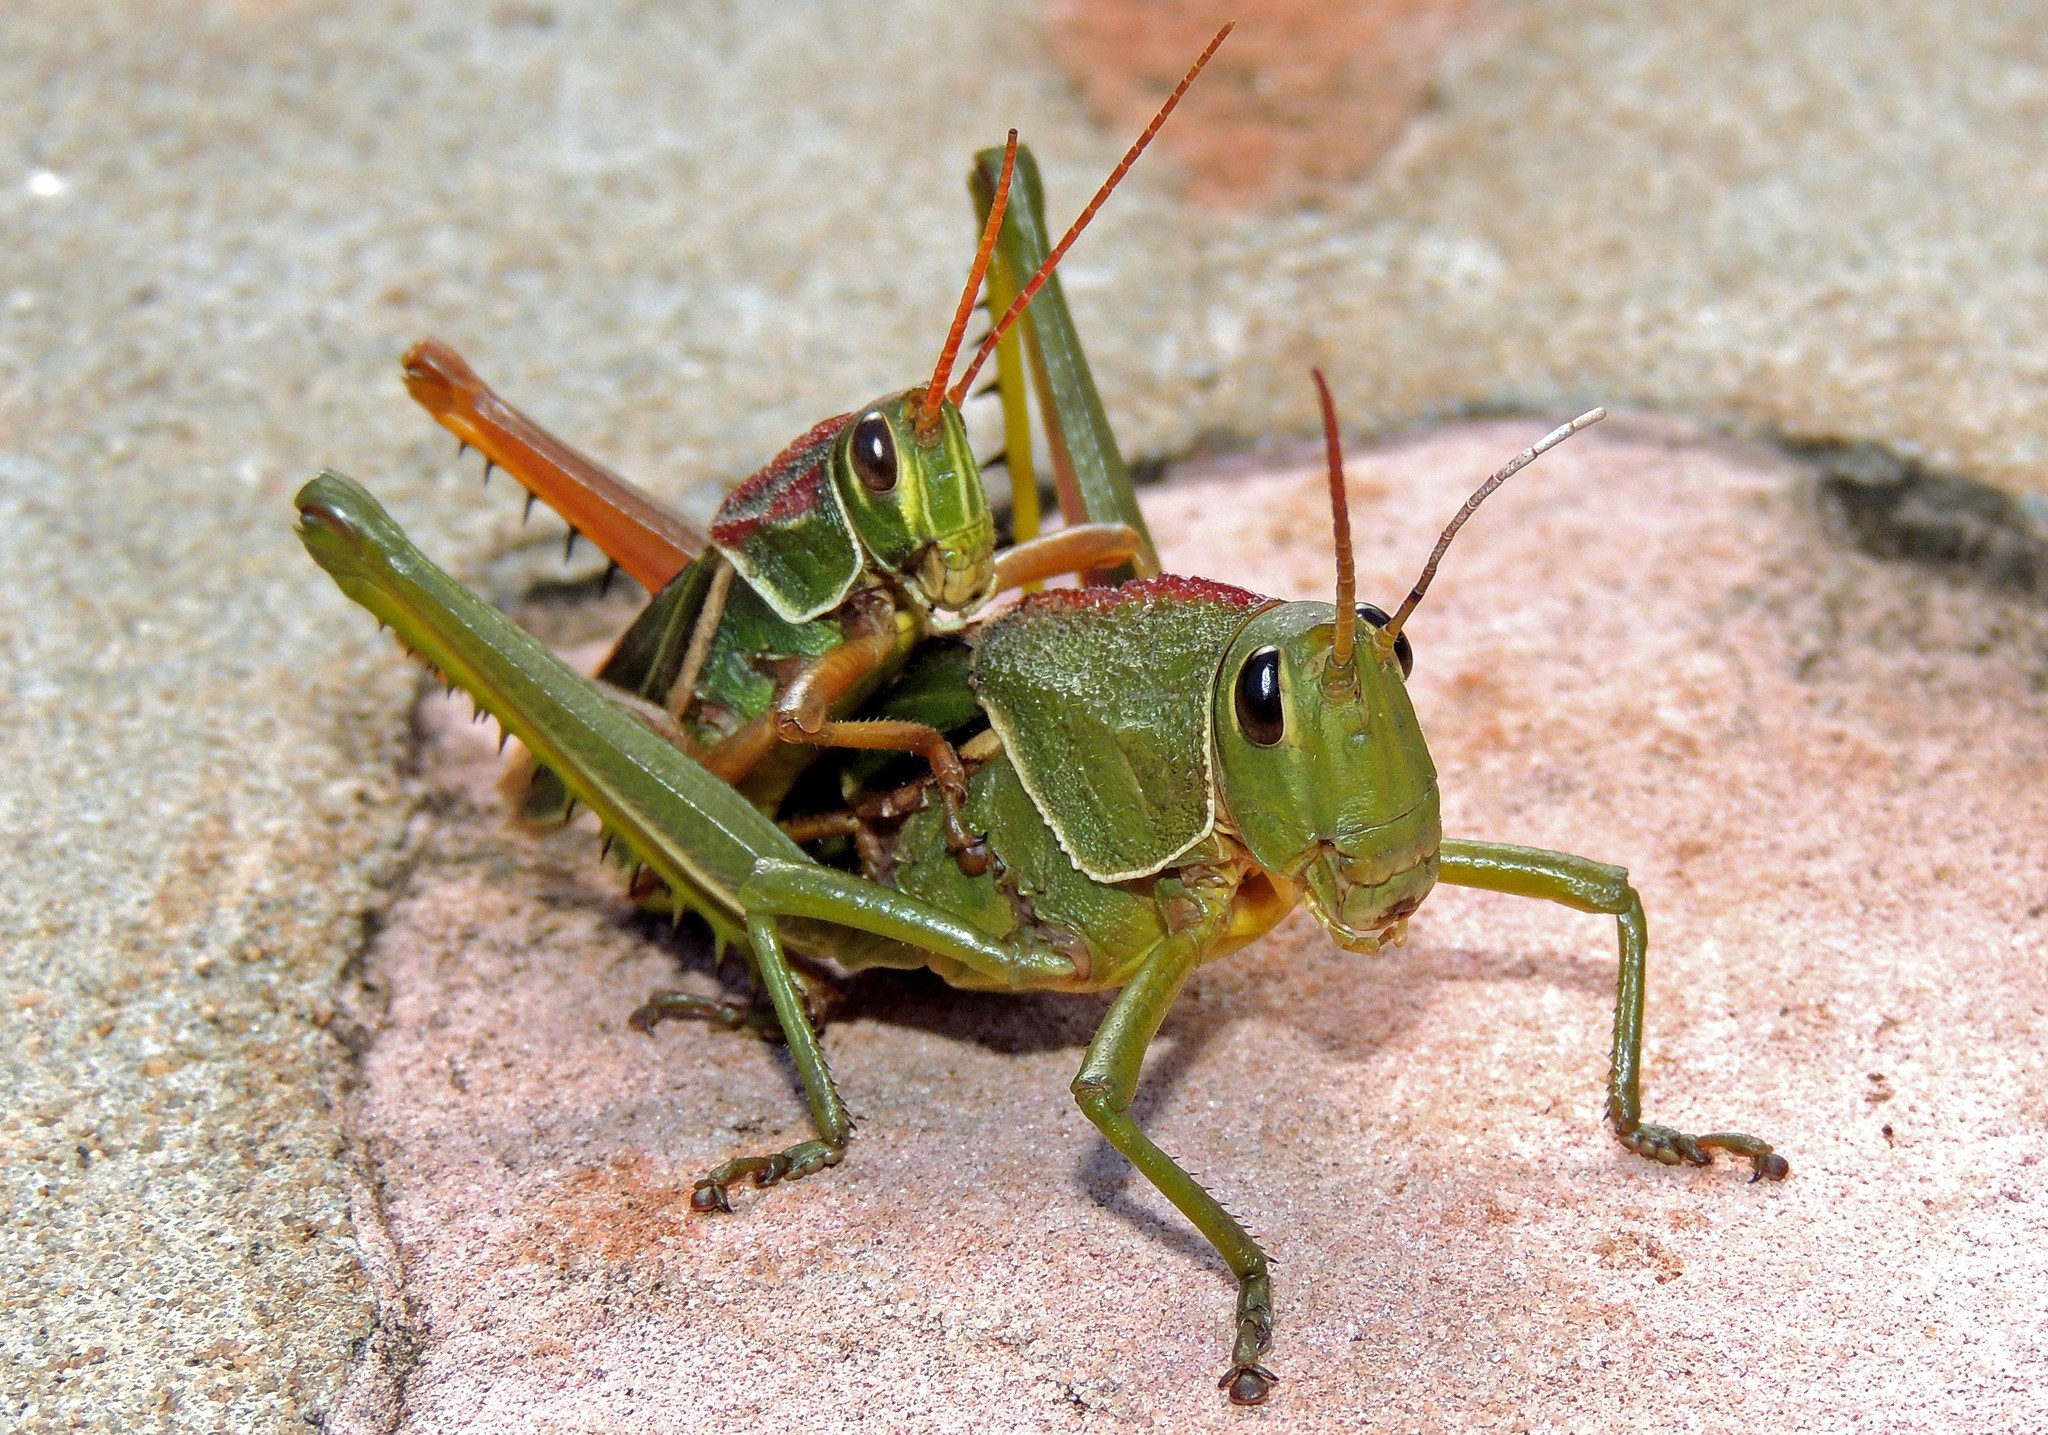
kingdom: Animalia
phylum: Arthropoda
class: Insecta
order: Orthoptera
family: Romaleidae
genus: Staleochlora
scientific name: Staleochlora arcuata
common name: Paraná purple-backed grasshopper
